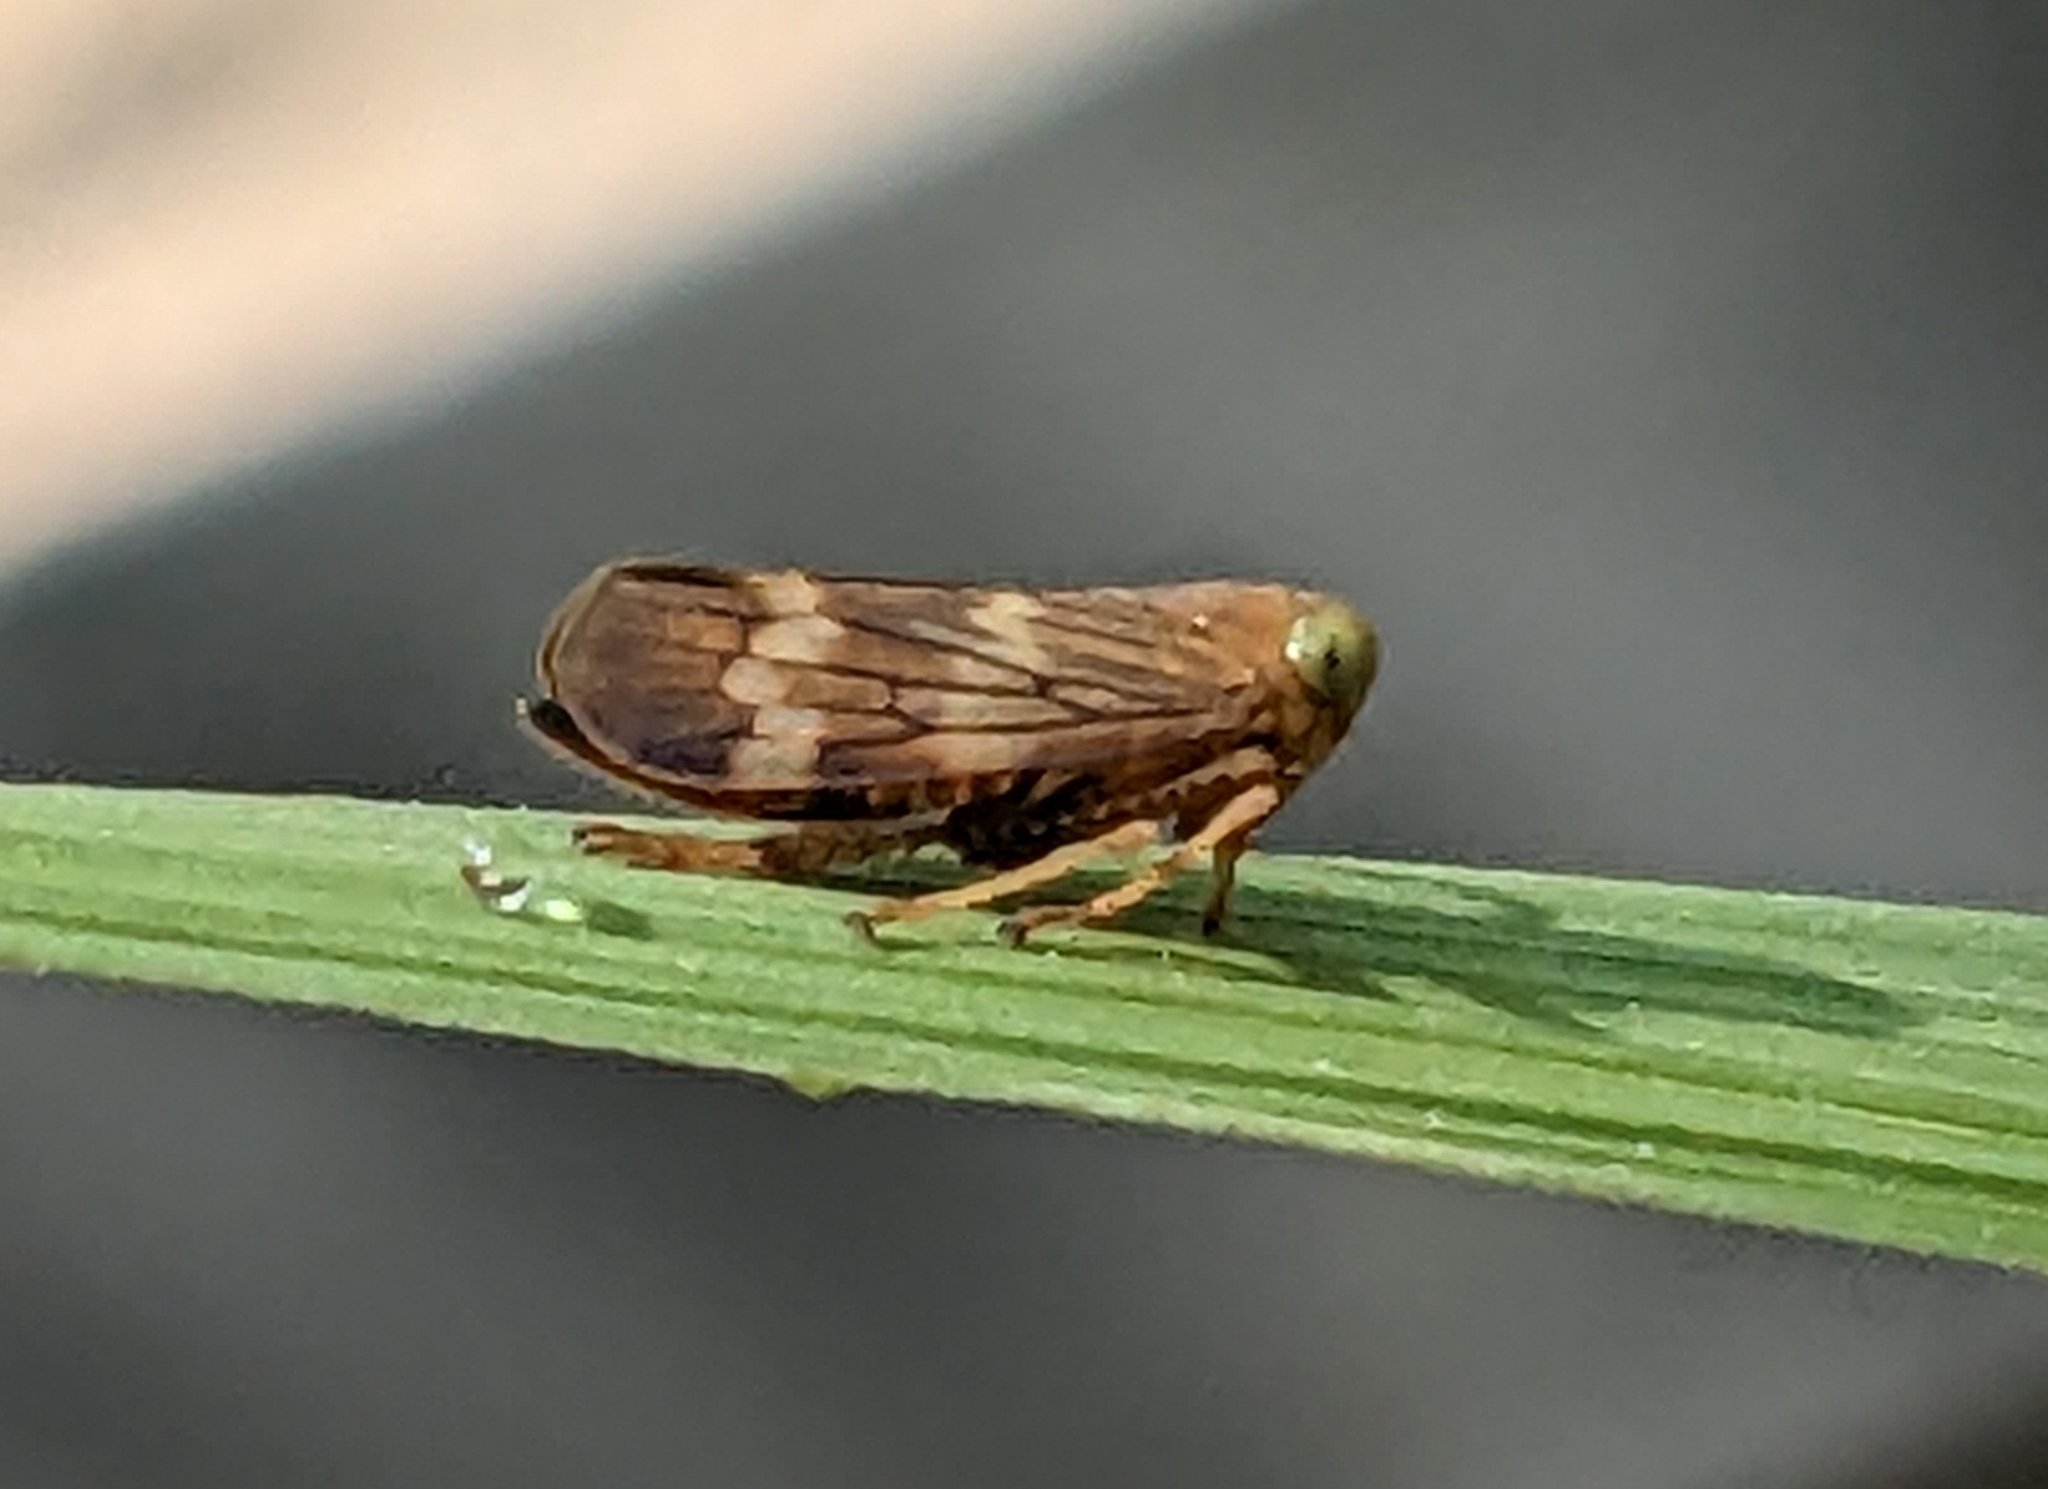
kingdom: Animalia
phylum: Arthropoda
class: Insecta
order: Hemiptera
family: Cicadellidae
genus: Jikradia
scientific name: Jikradia olitoria
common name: Coppery leafhopper
